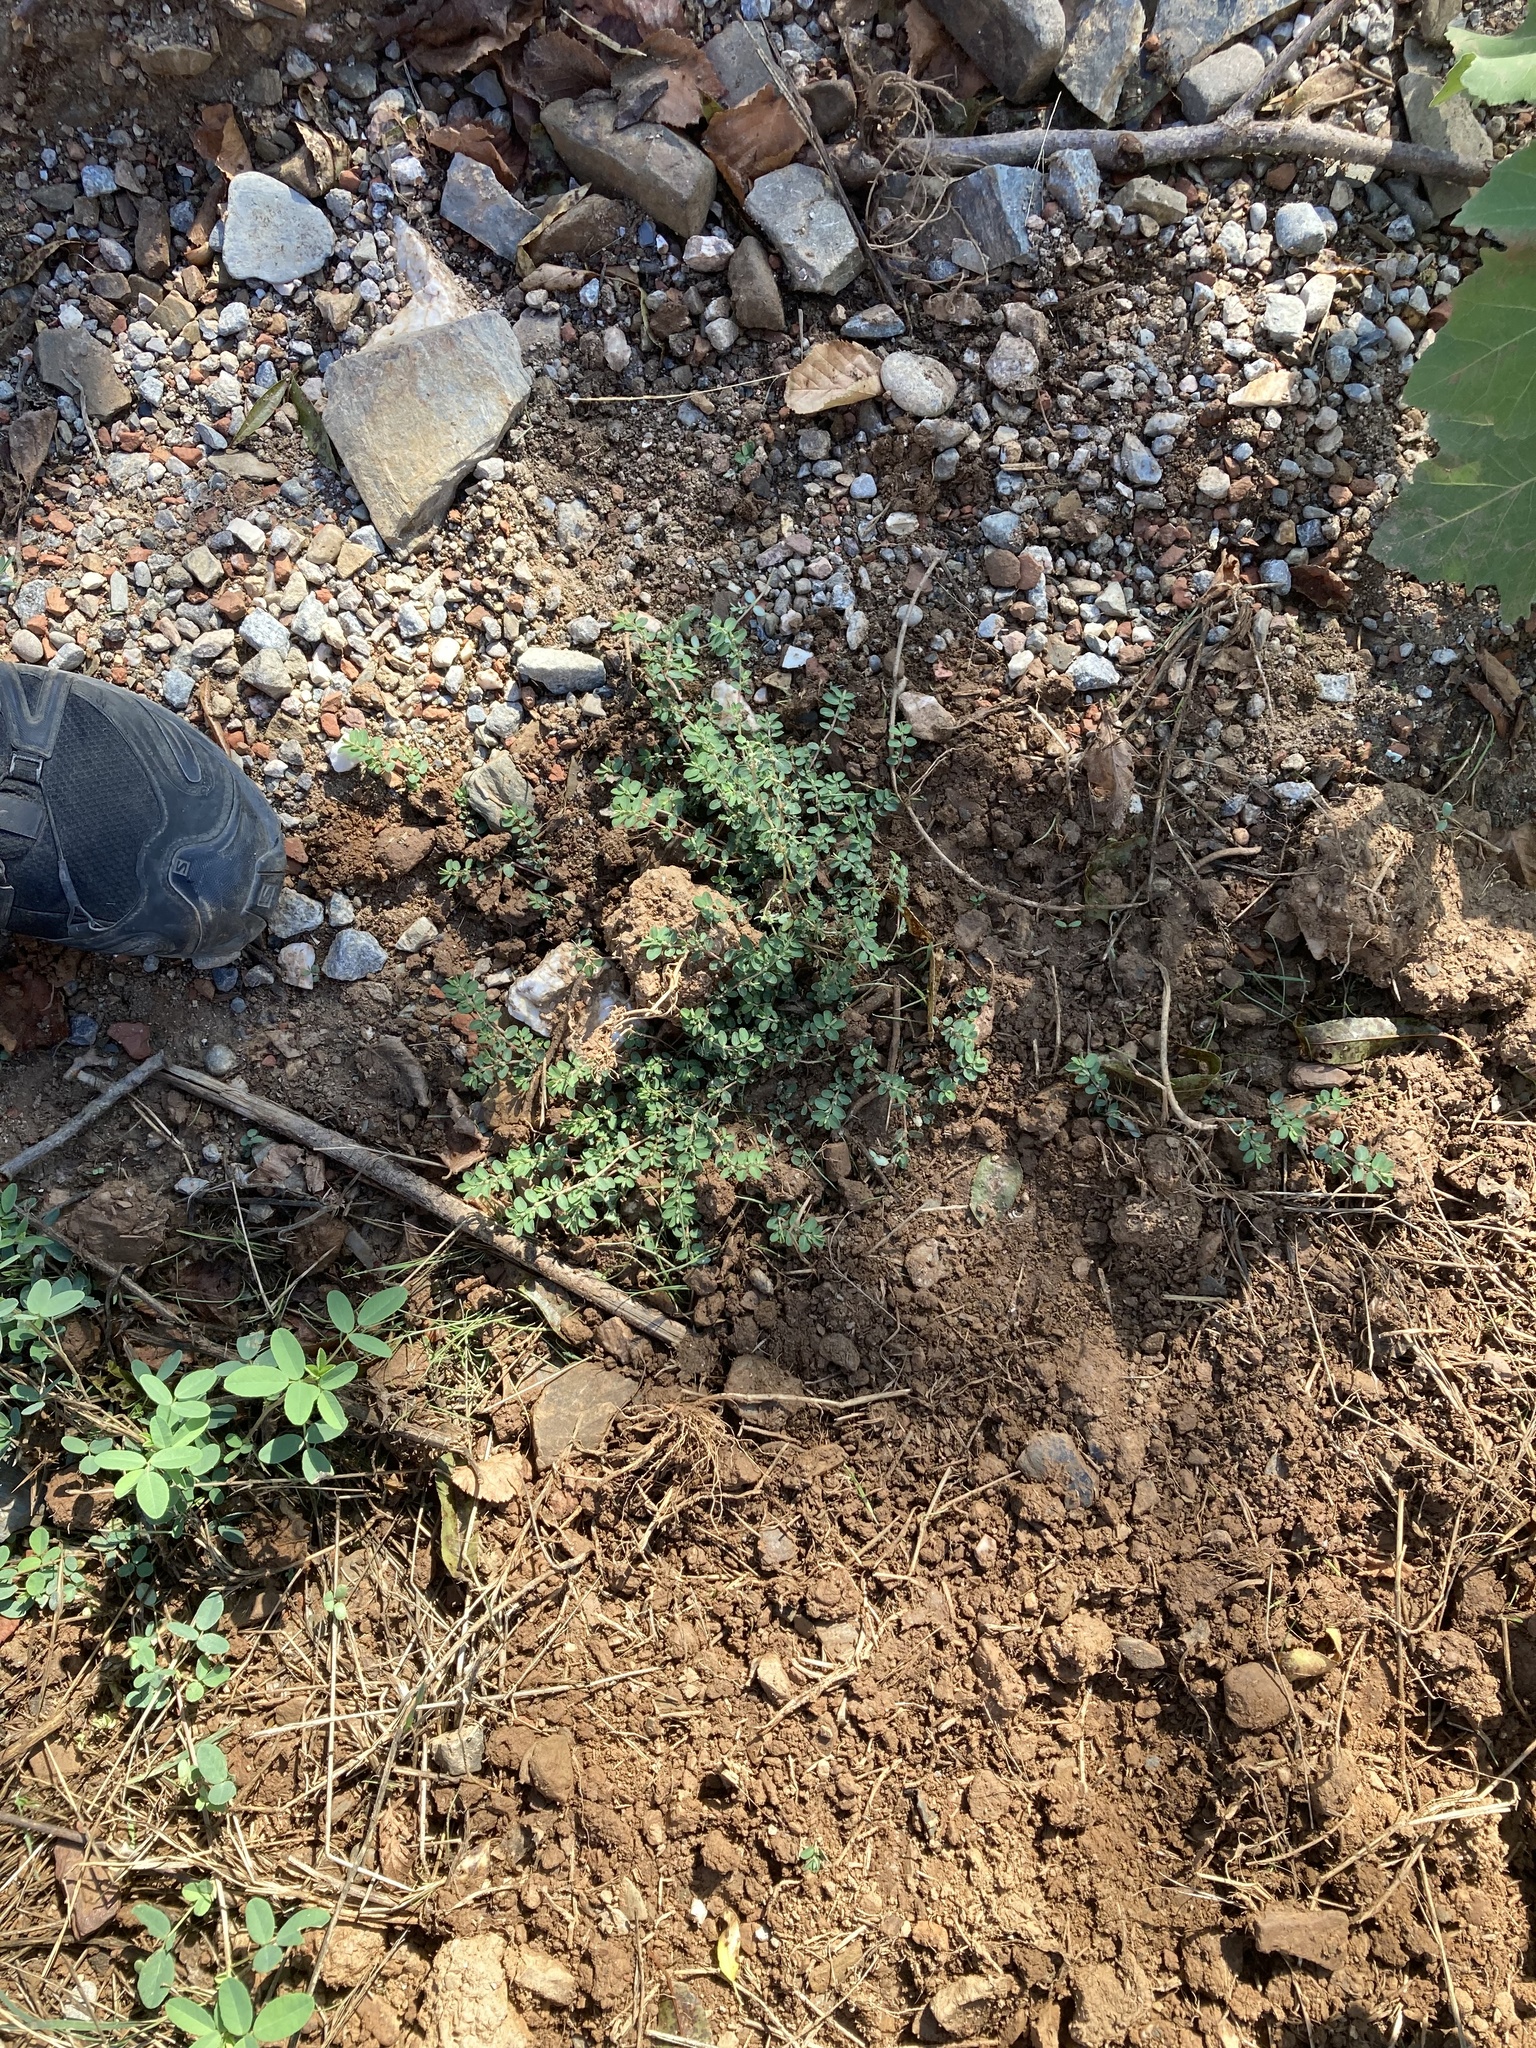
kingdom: Plantae
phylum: Tracheophyta
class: Magnoliopsida
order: Malpighiales
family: Euphorbiaceae
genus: Euphorbia
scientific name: Euphorbia prostrata
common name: Prostrate sandmat
